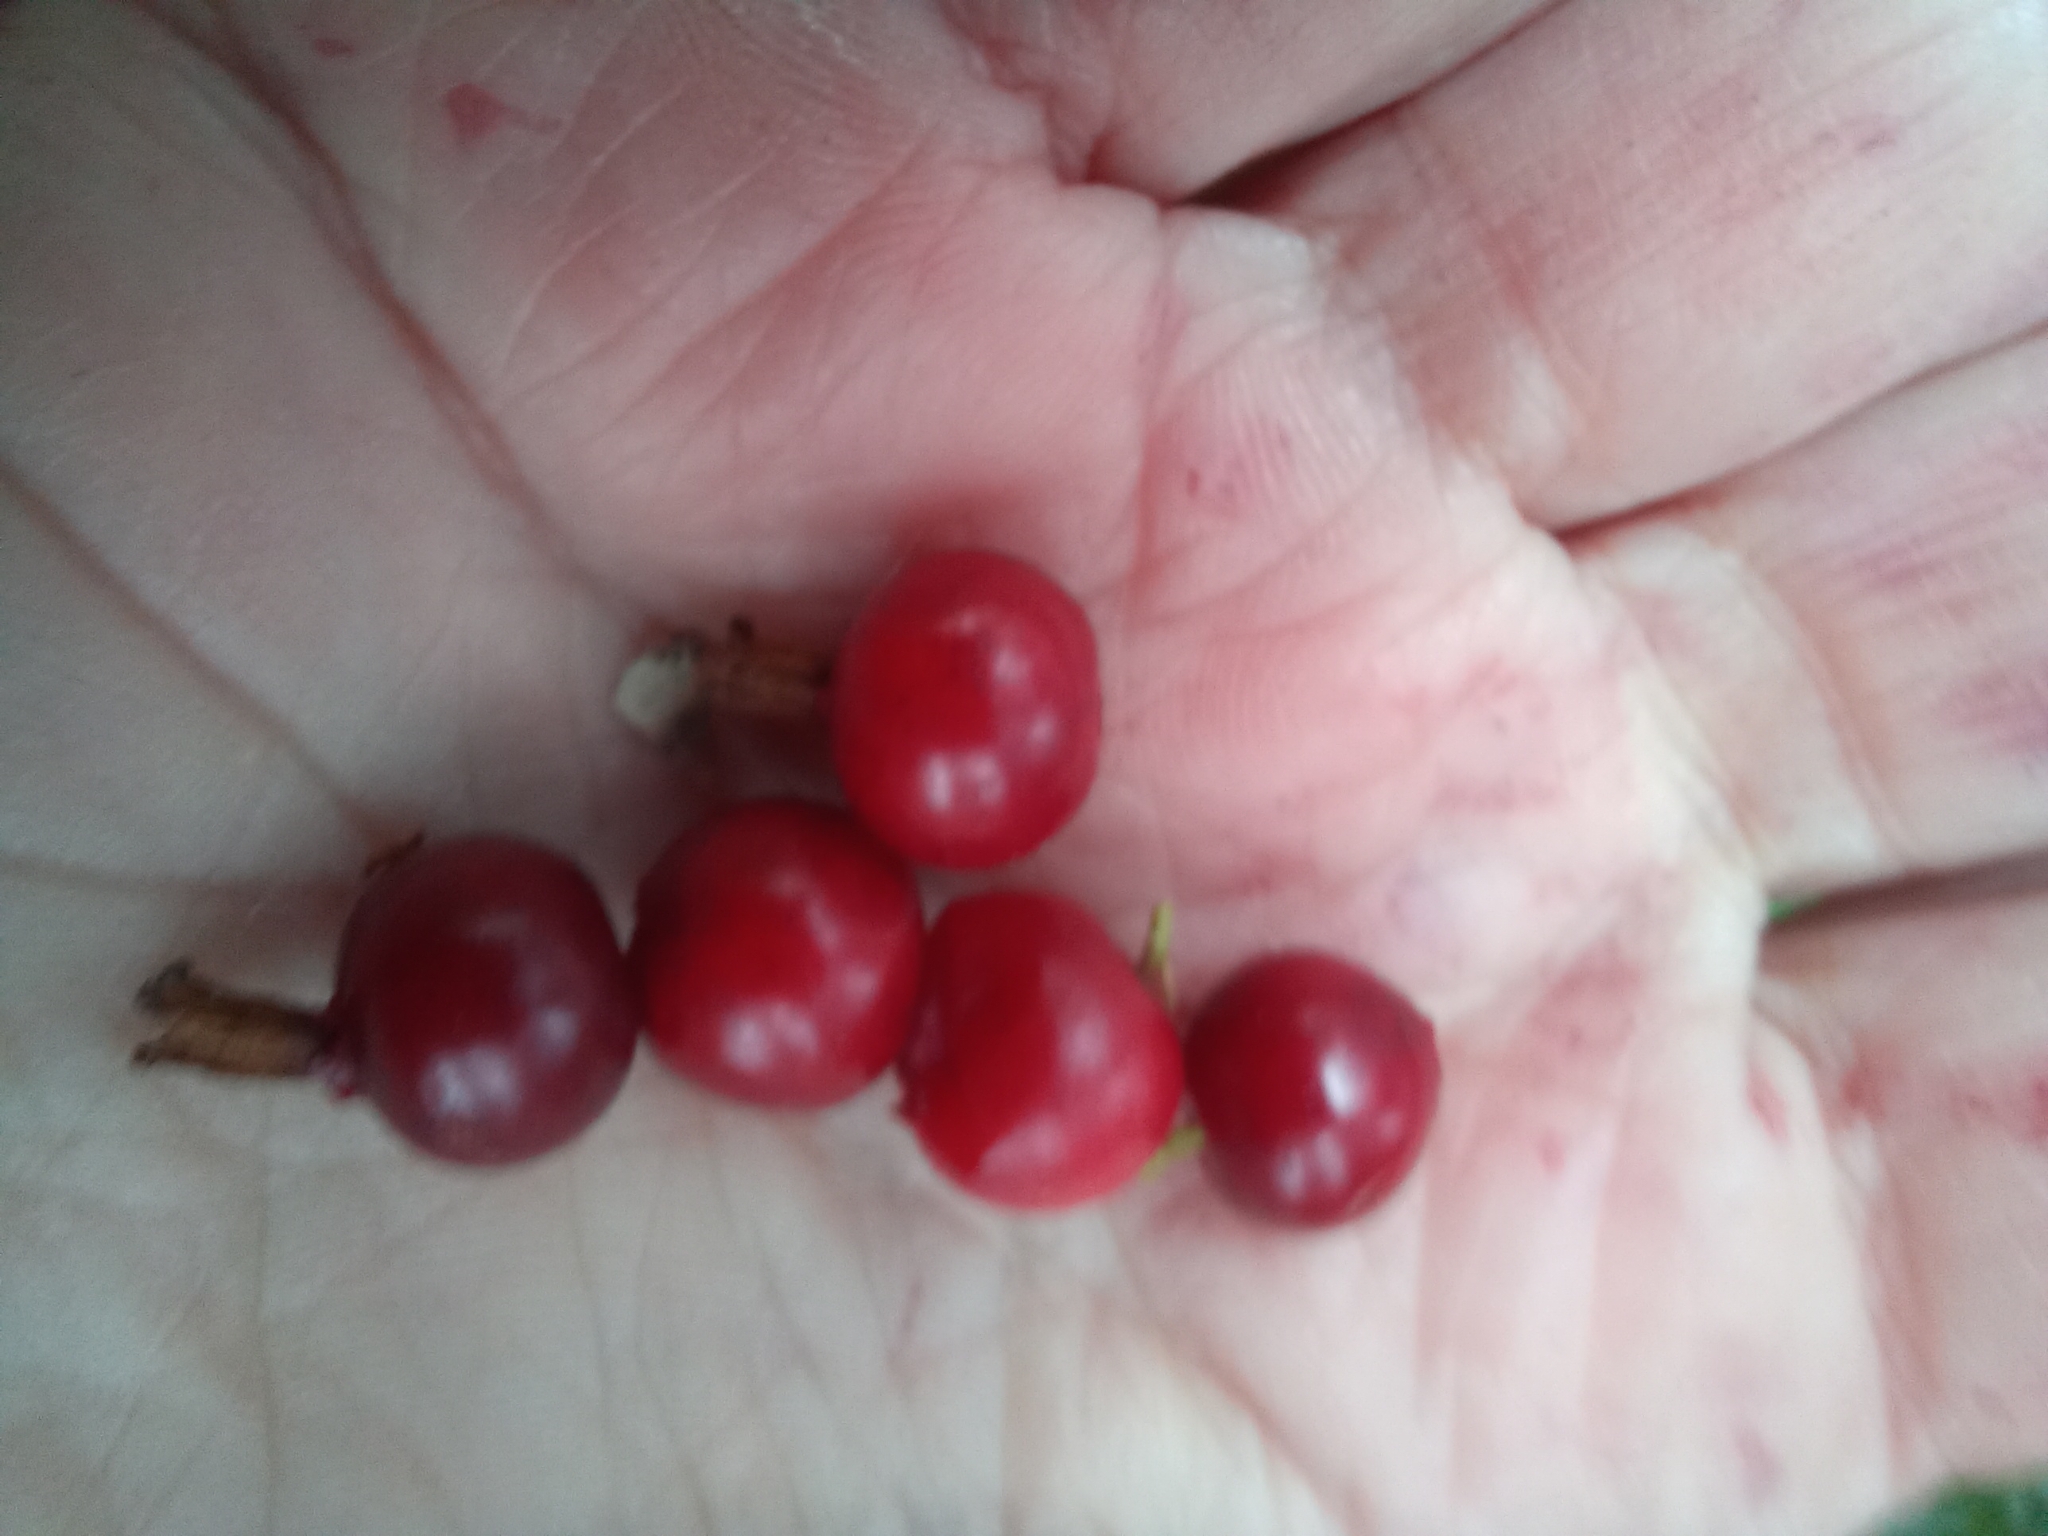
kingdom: Plantae
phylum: Tracheophyta
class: Magnoliopsida
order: Ericales
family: Ericaceae
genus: Vaccinium
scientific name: Vaccinium vitis-idaea
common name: Cowberry
